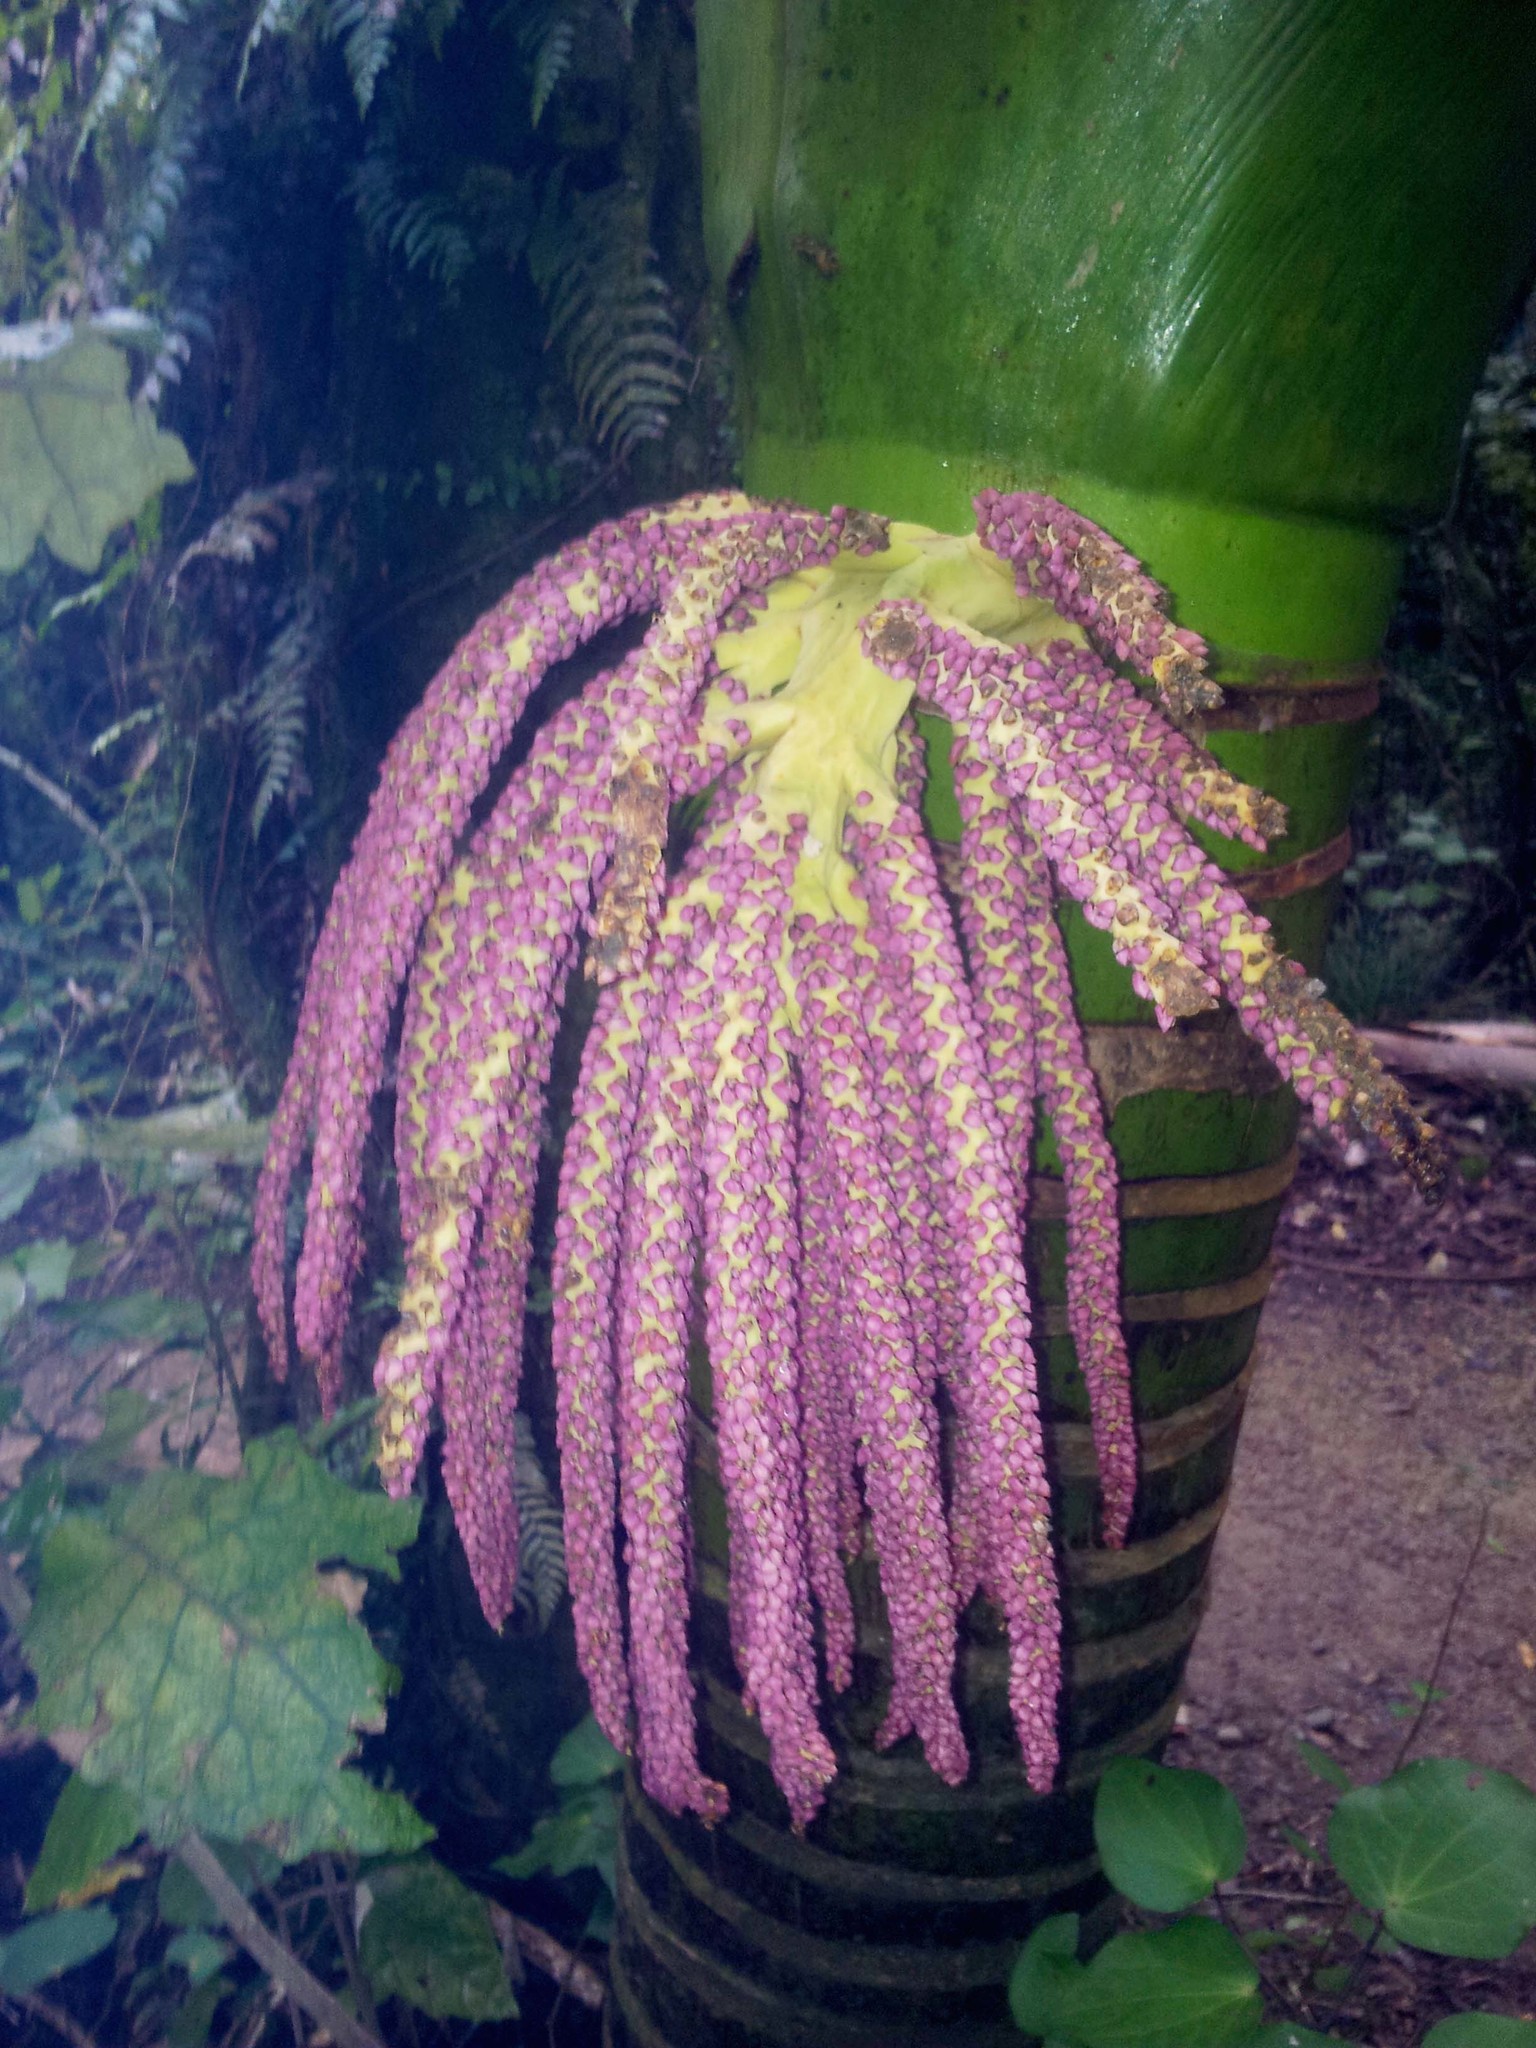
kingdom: Plantae
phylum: Tracheophyta
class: Liliopsida
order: Arecales
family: Arecaceae
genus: Rhopalostylis
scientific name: Rhopalostylis sapida
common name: Feather-duster palm
